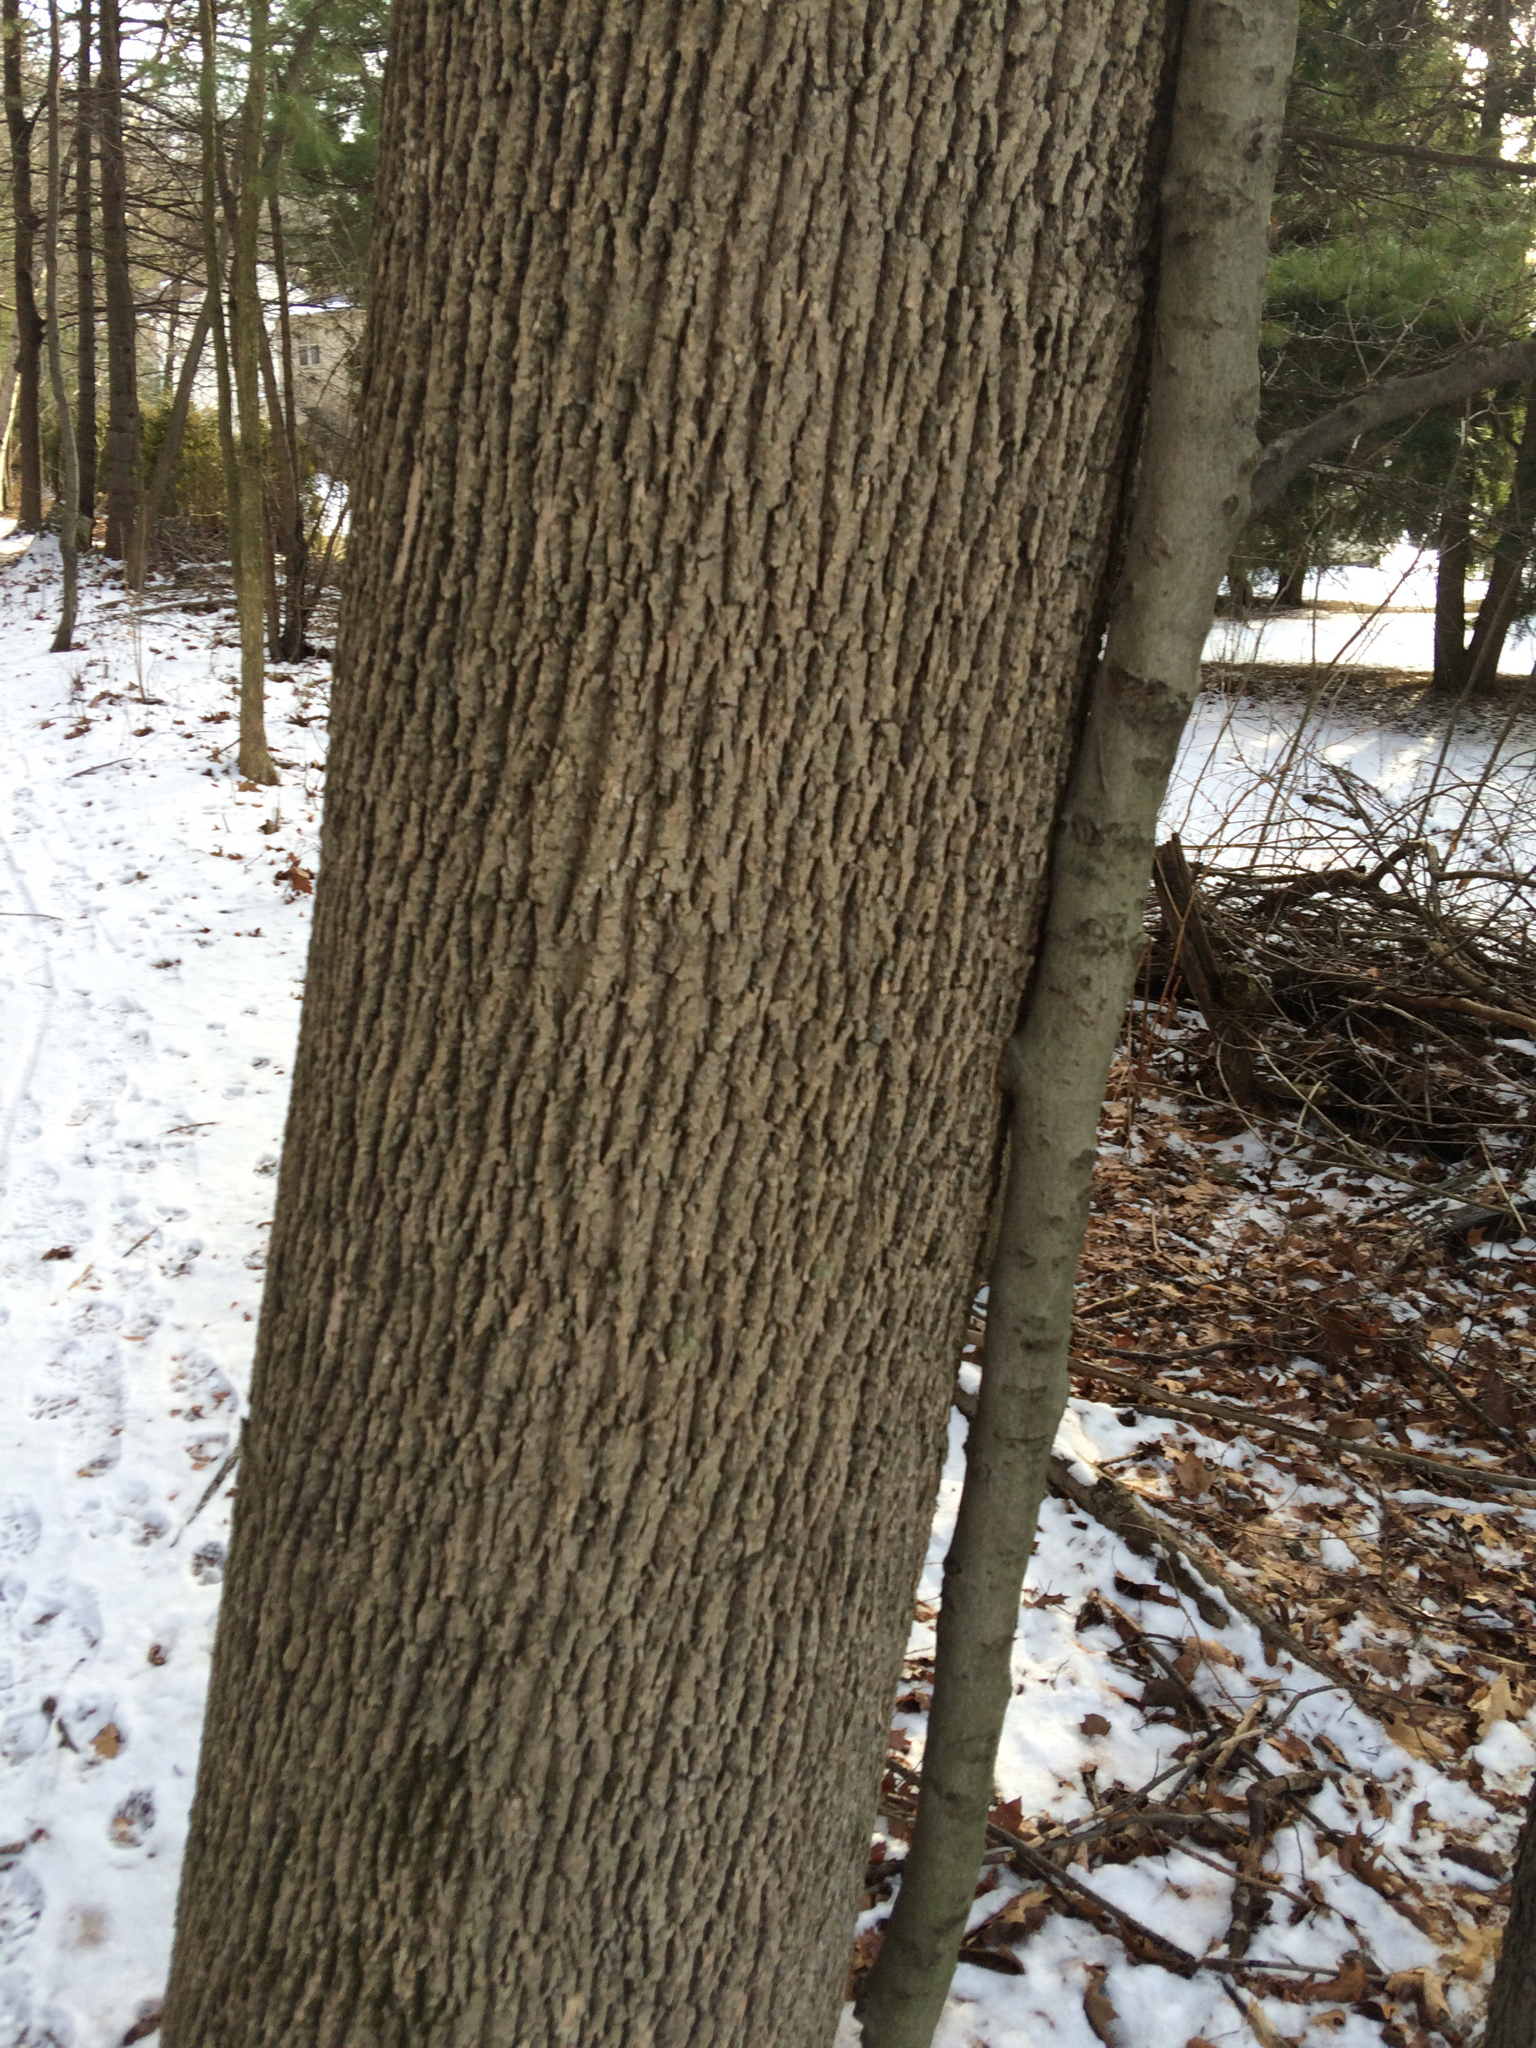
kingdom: Plantae
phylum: Tracheophyta
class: Magnoliopsida
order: Lamiales
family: Oleaceae
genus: Fraxinus
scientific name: Fraxinus americana
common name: White ash
